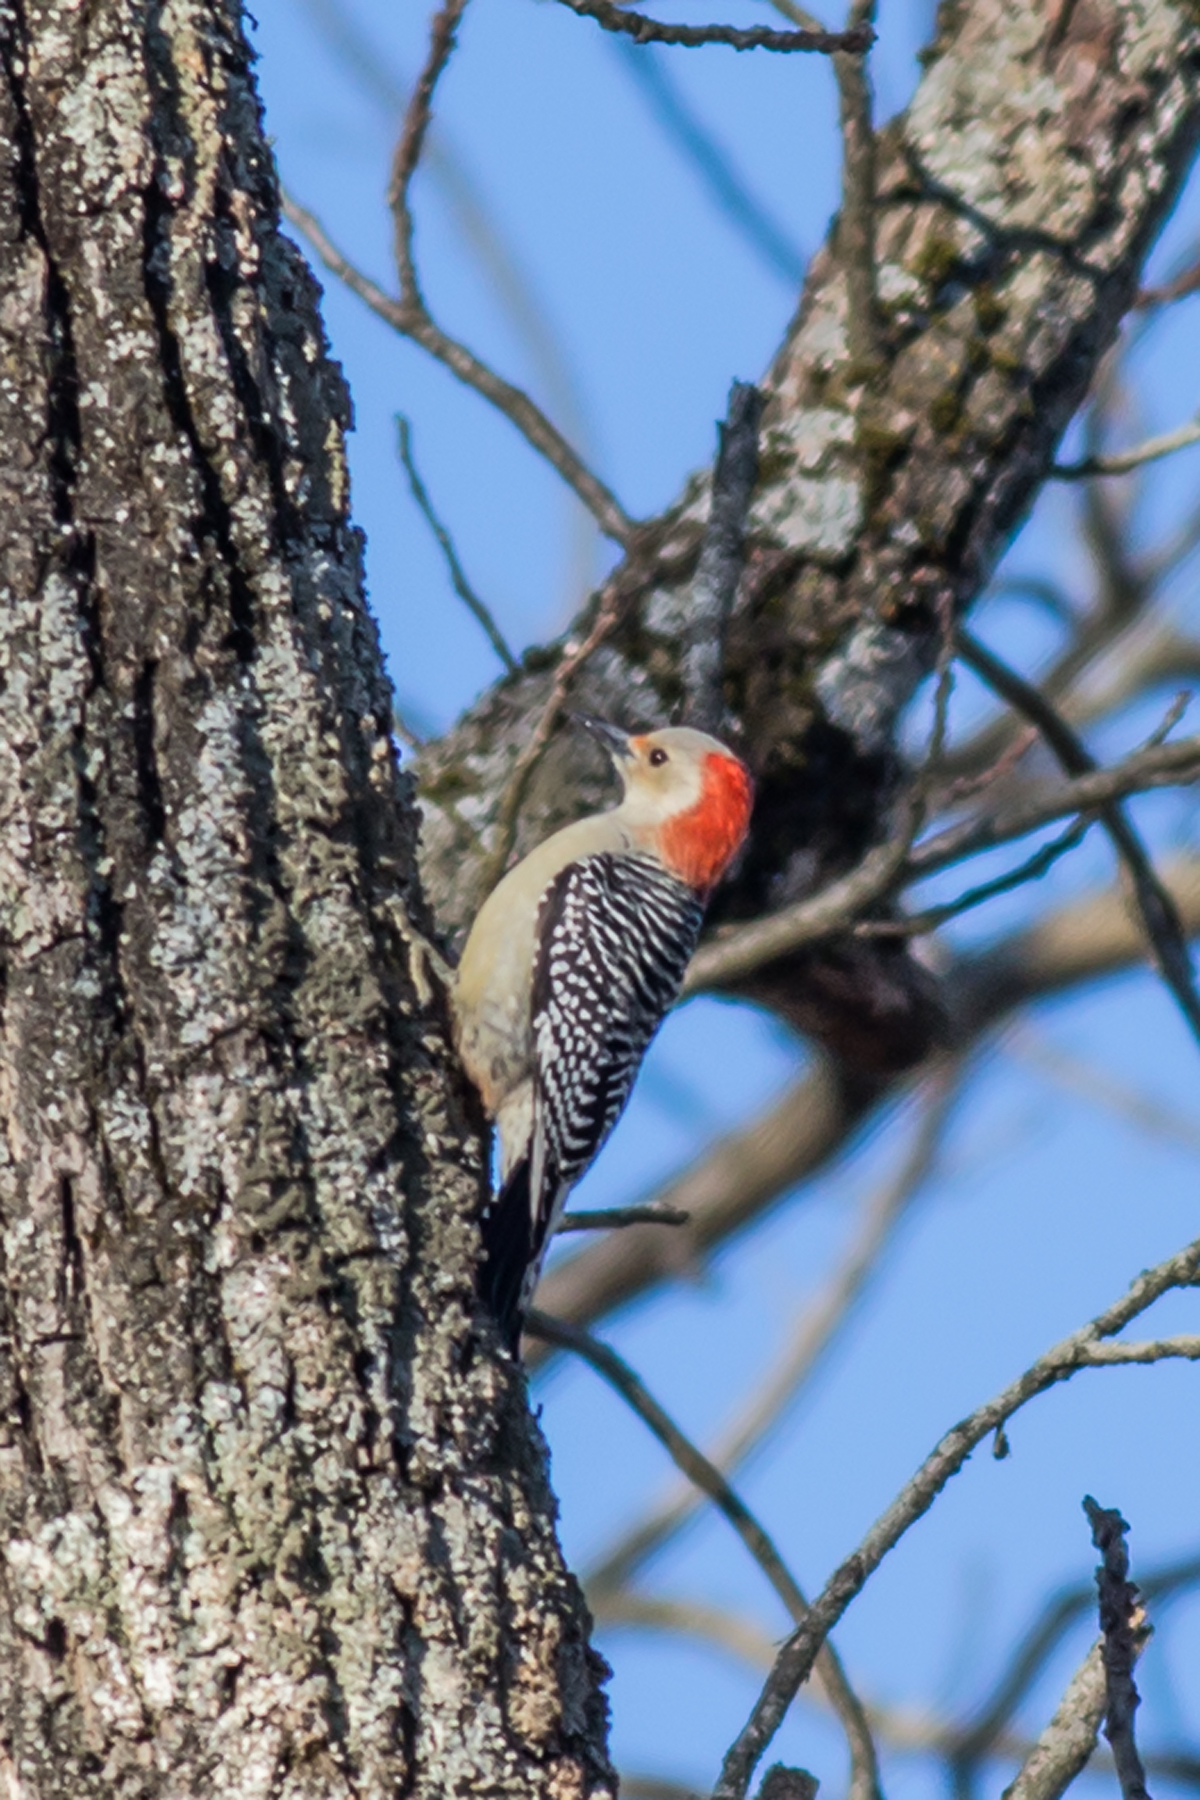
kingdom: Animalia
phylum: Chordata
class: Aves
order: Piciformes
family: Picidae
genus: Melanerpes
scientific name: Melanerpes carolinus
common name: Red-bellied woodpecker
